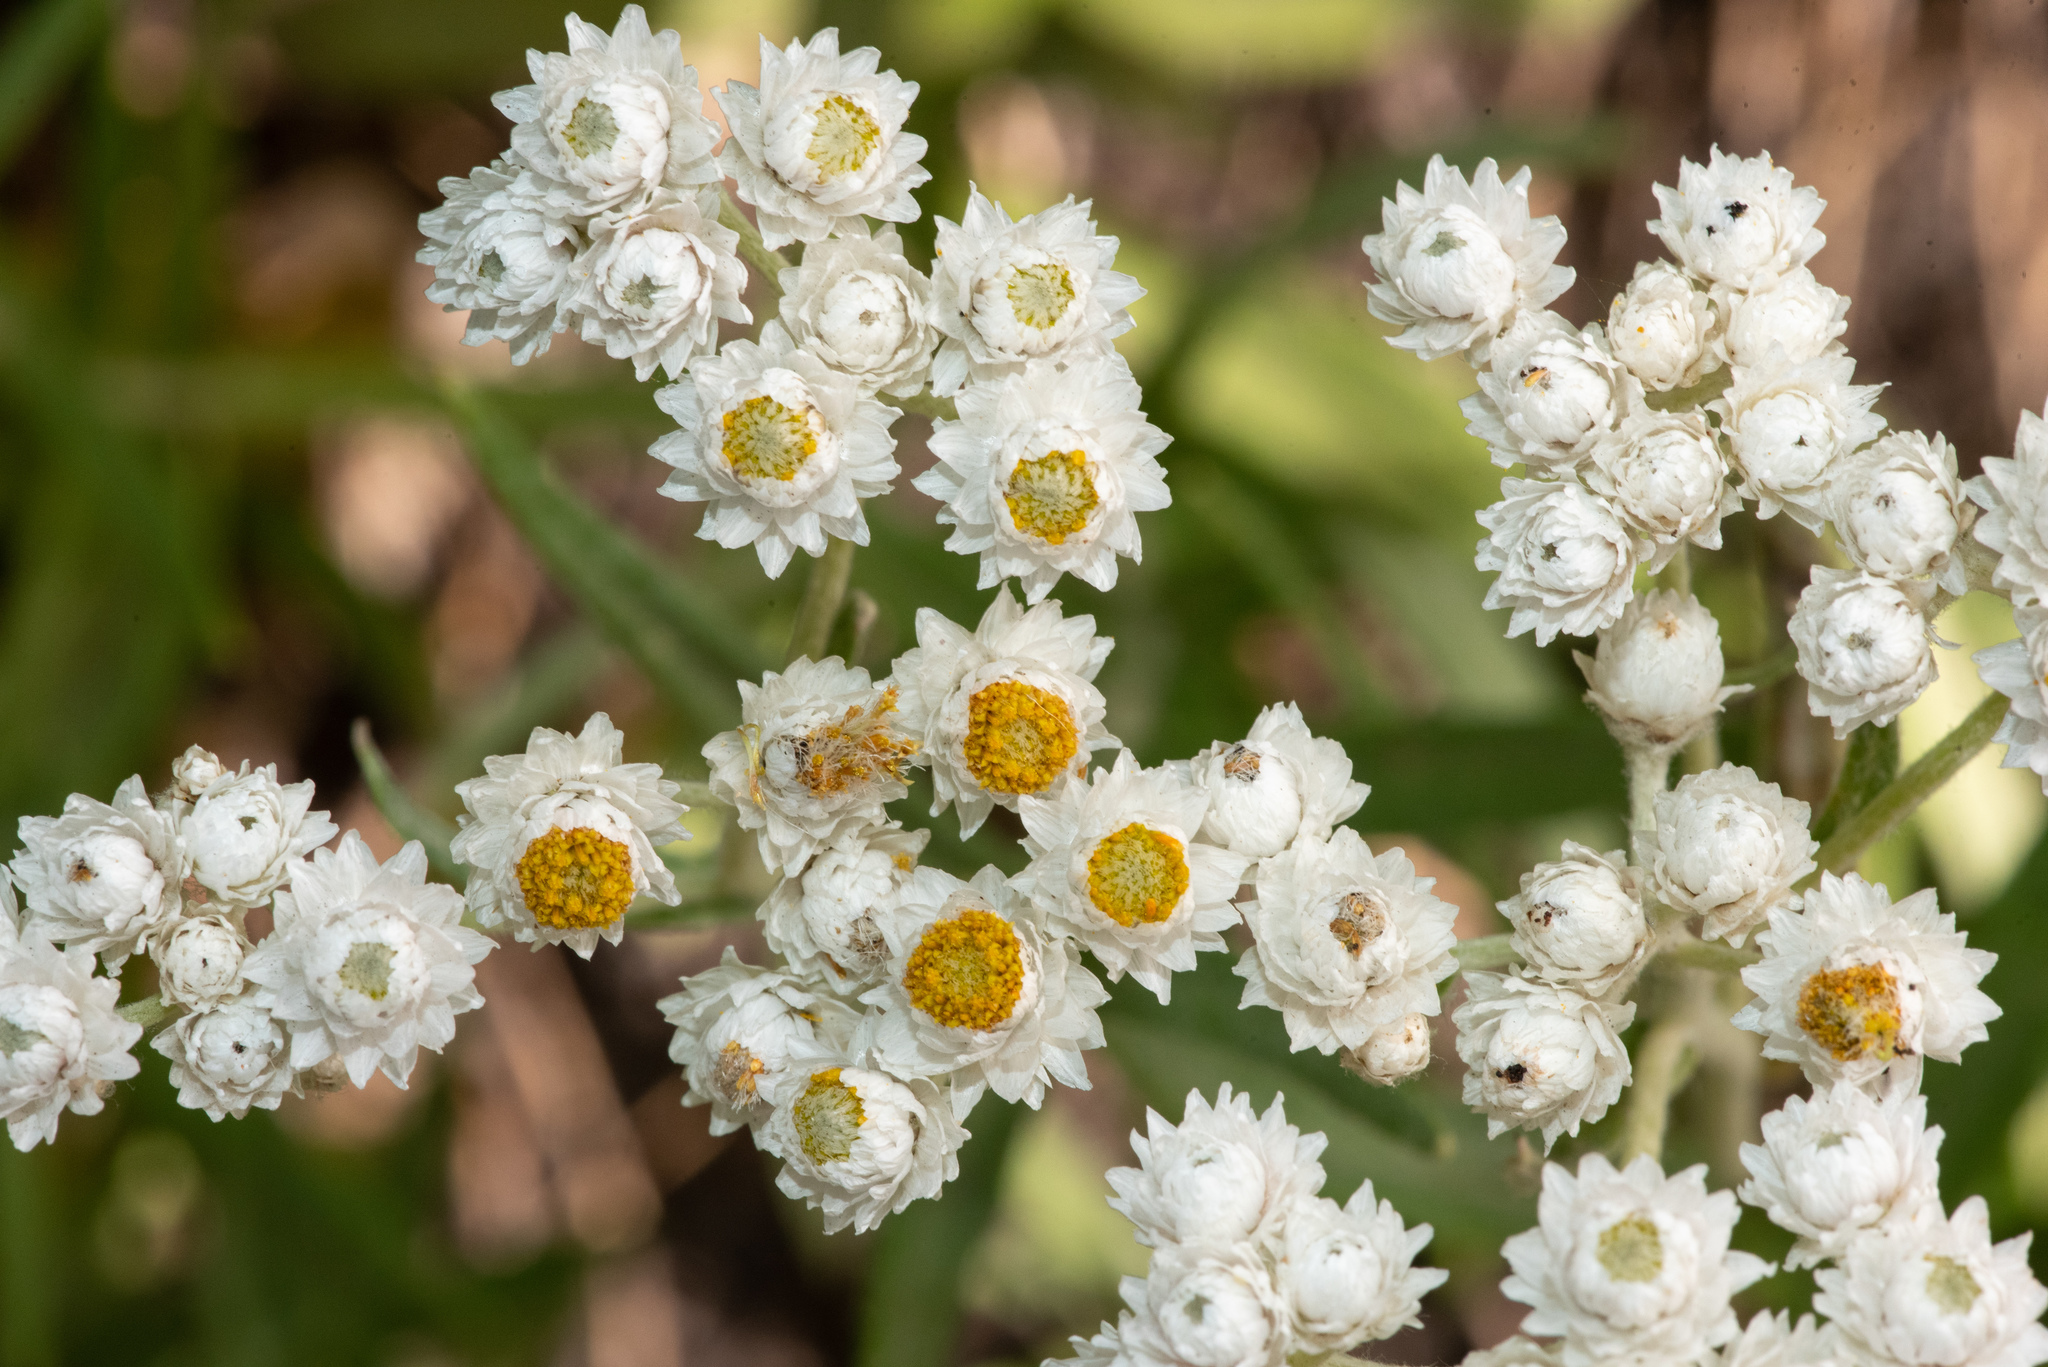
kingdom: Plantae
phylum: Tracheophyta
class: Magnoliopsida
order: Asterales
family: Asteraceae
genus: Anaphalis
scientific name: Anaphalis margaritacea
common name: Pearly everlasting
